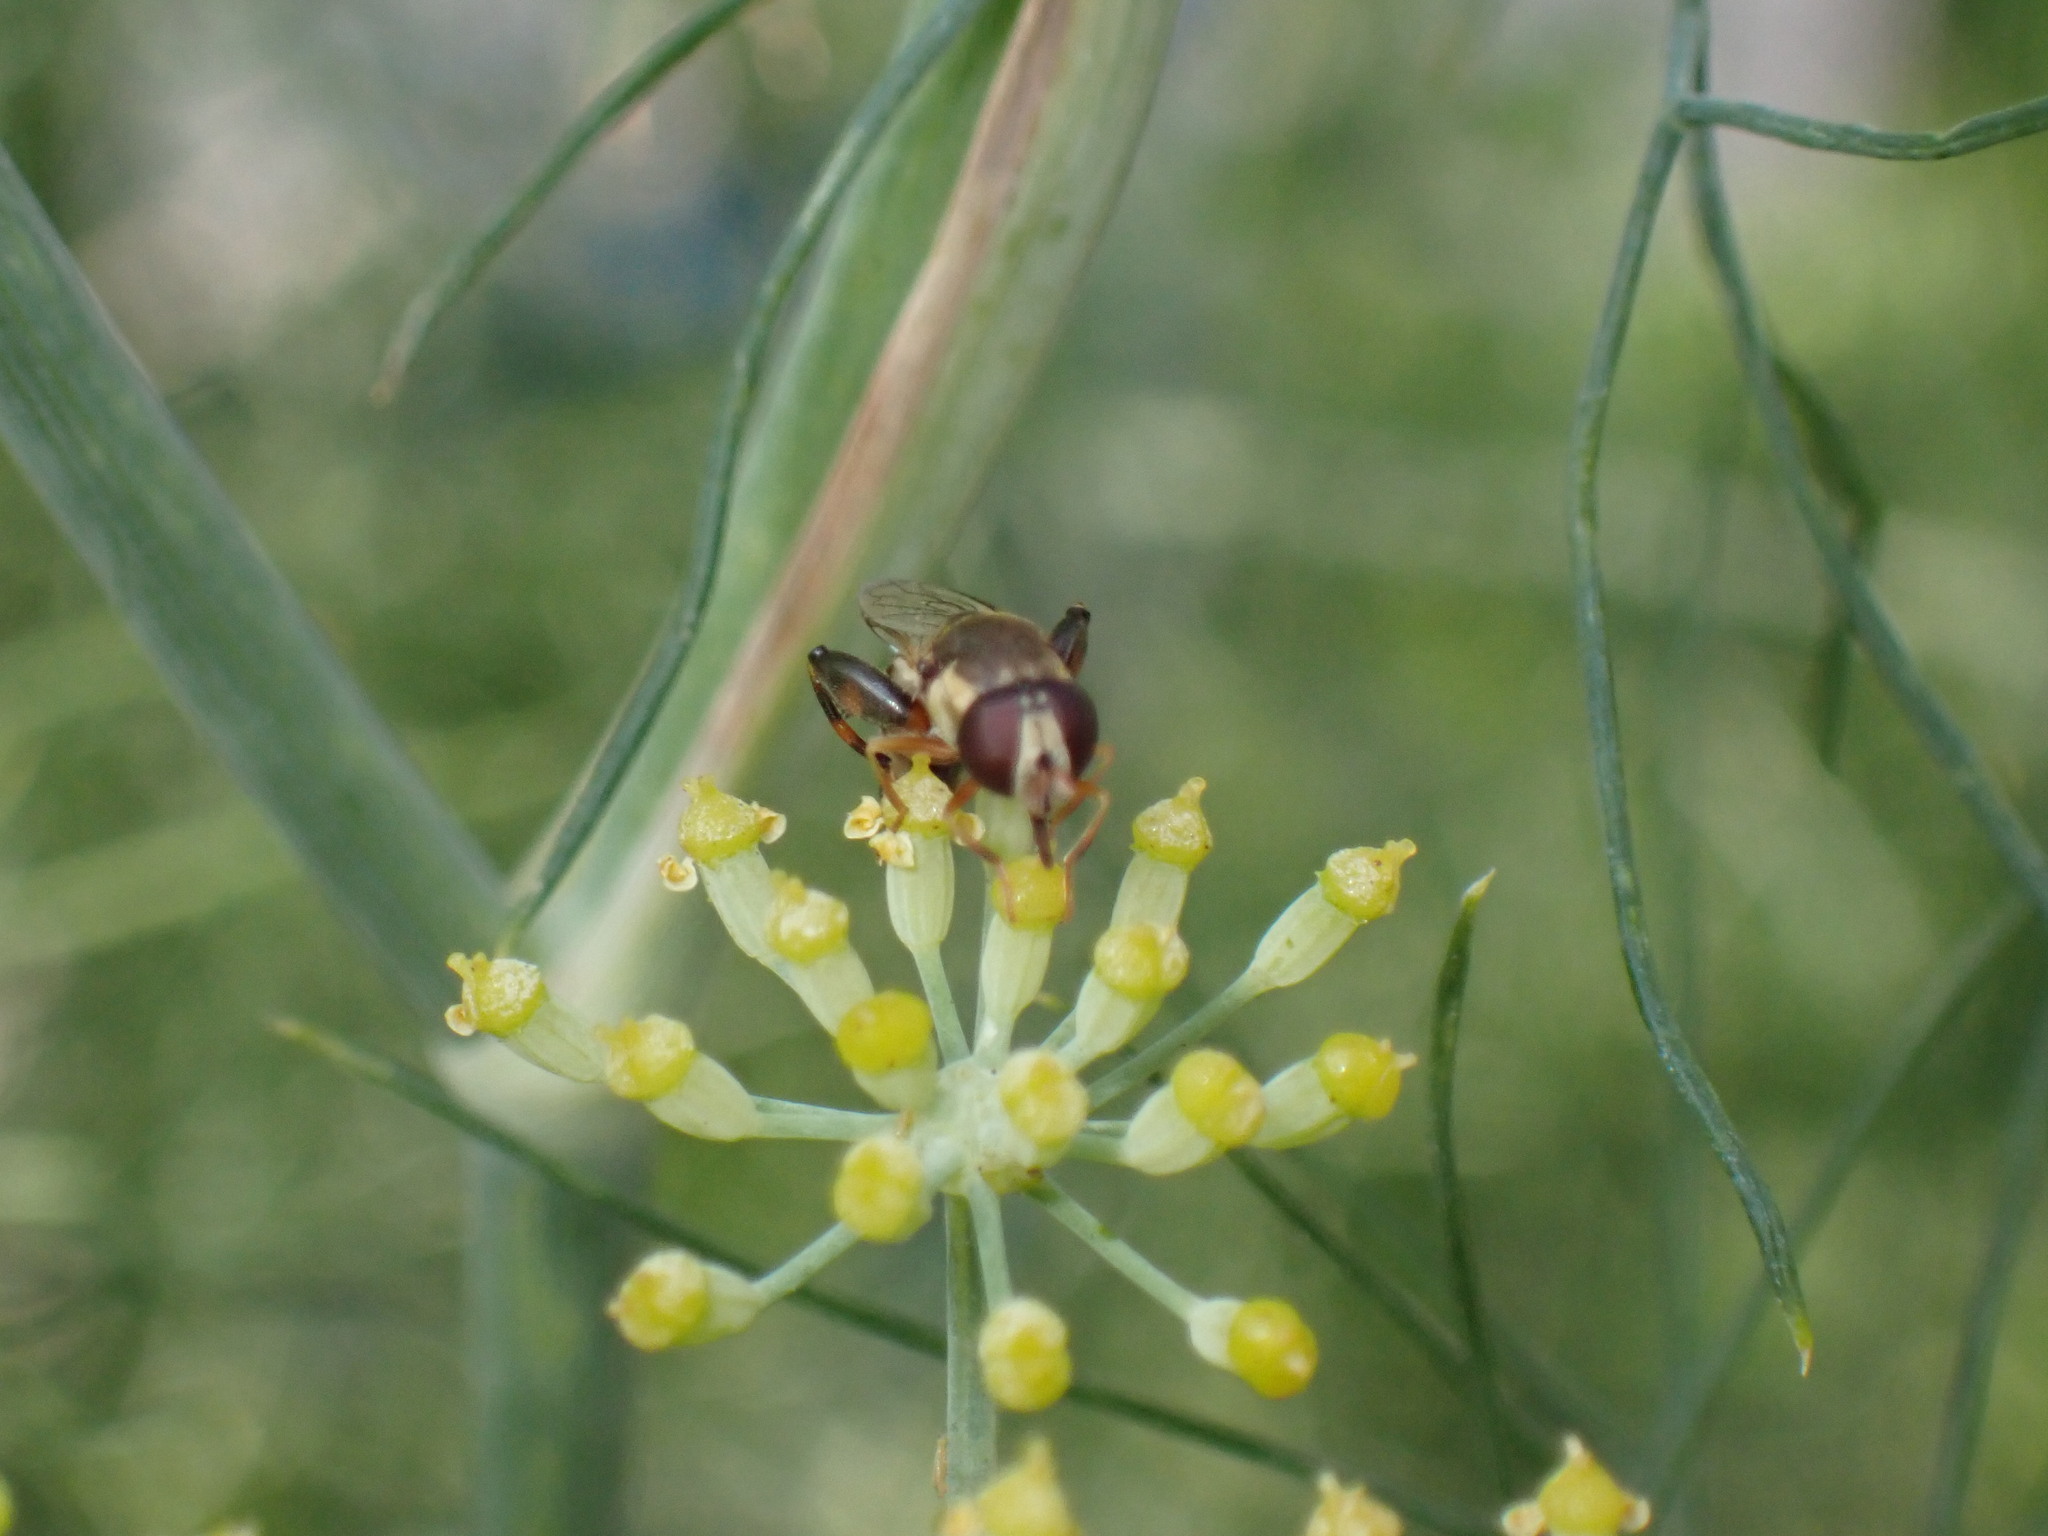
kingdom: Animalia
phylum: Arthropoda
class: Insecta
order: Diptera
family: Syrphidae
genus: Syritta
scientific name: Syritta pipiens
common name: Hover fly
